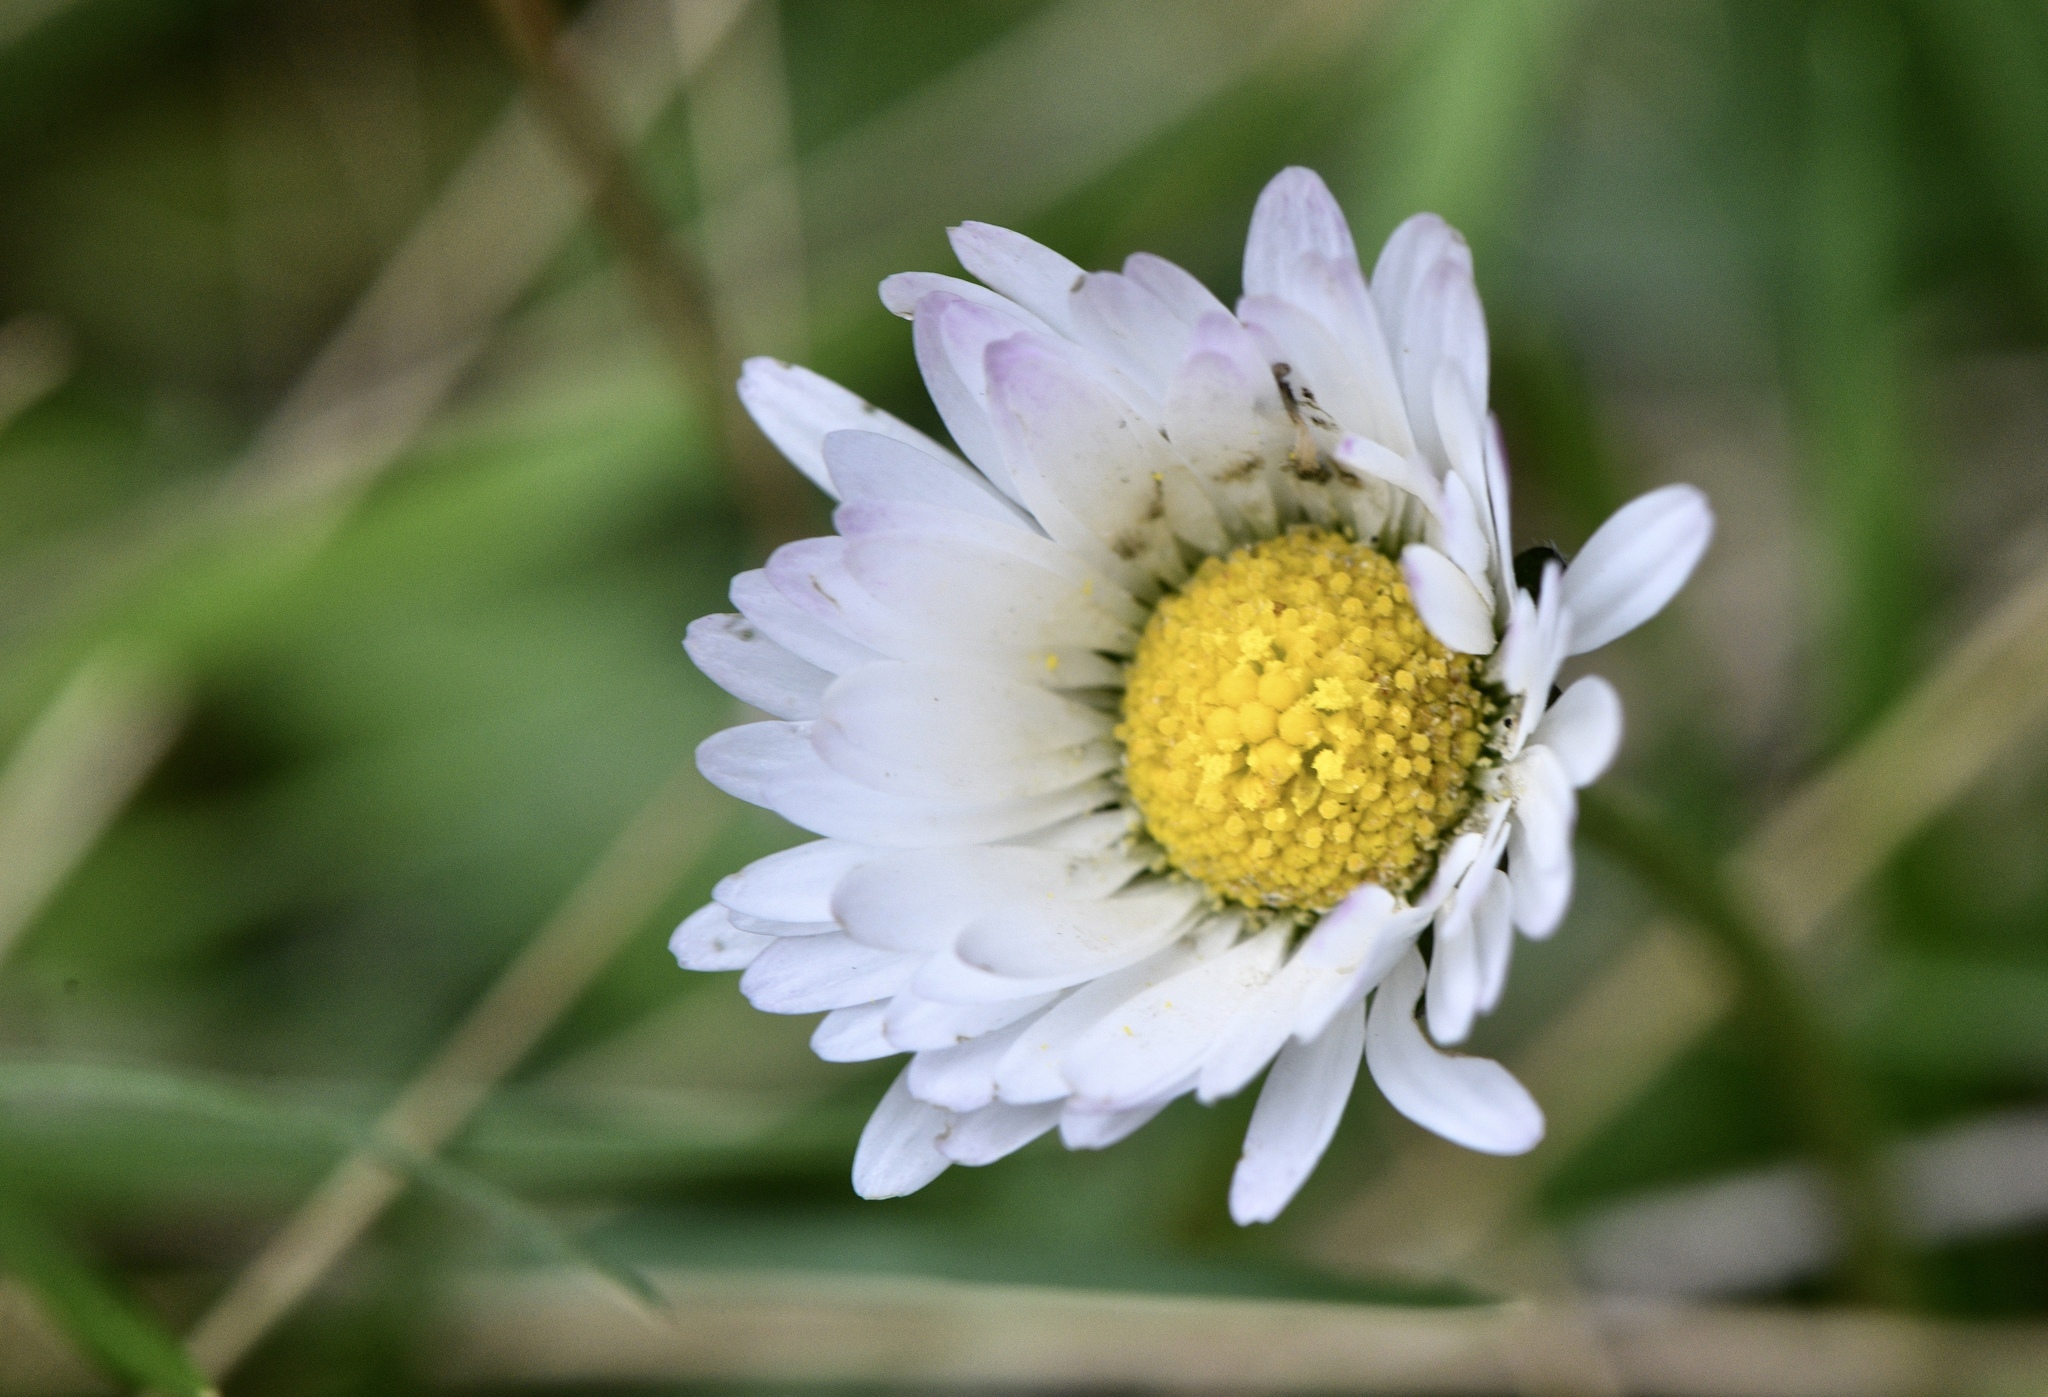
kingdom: Plantae
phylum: Tracheophyta
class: Magnoliopsida
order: Asterales
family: Asteraceae
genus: Bellis
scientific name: Bellis perennis
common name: Lawndaisy
